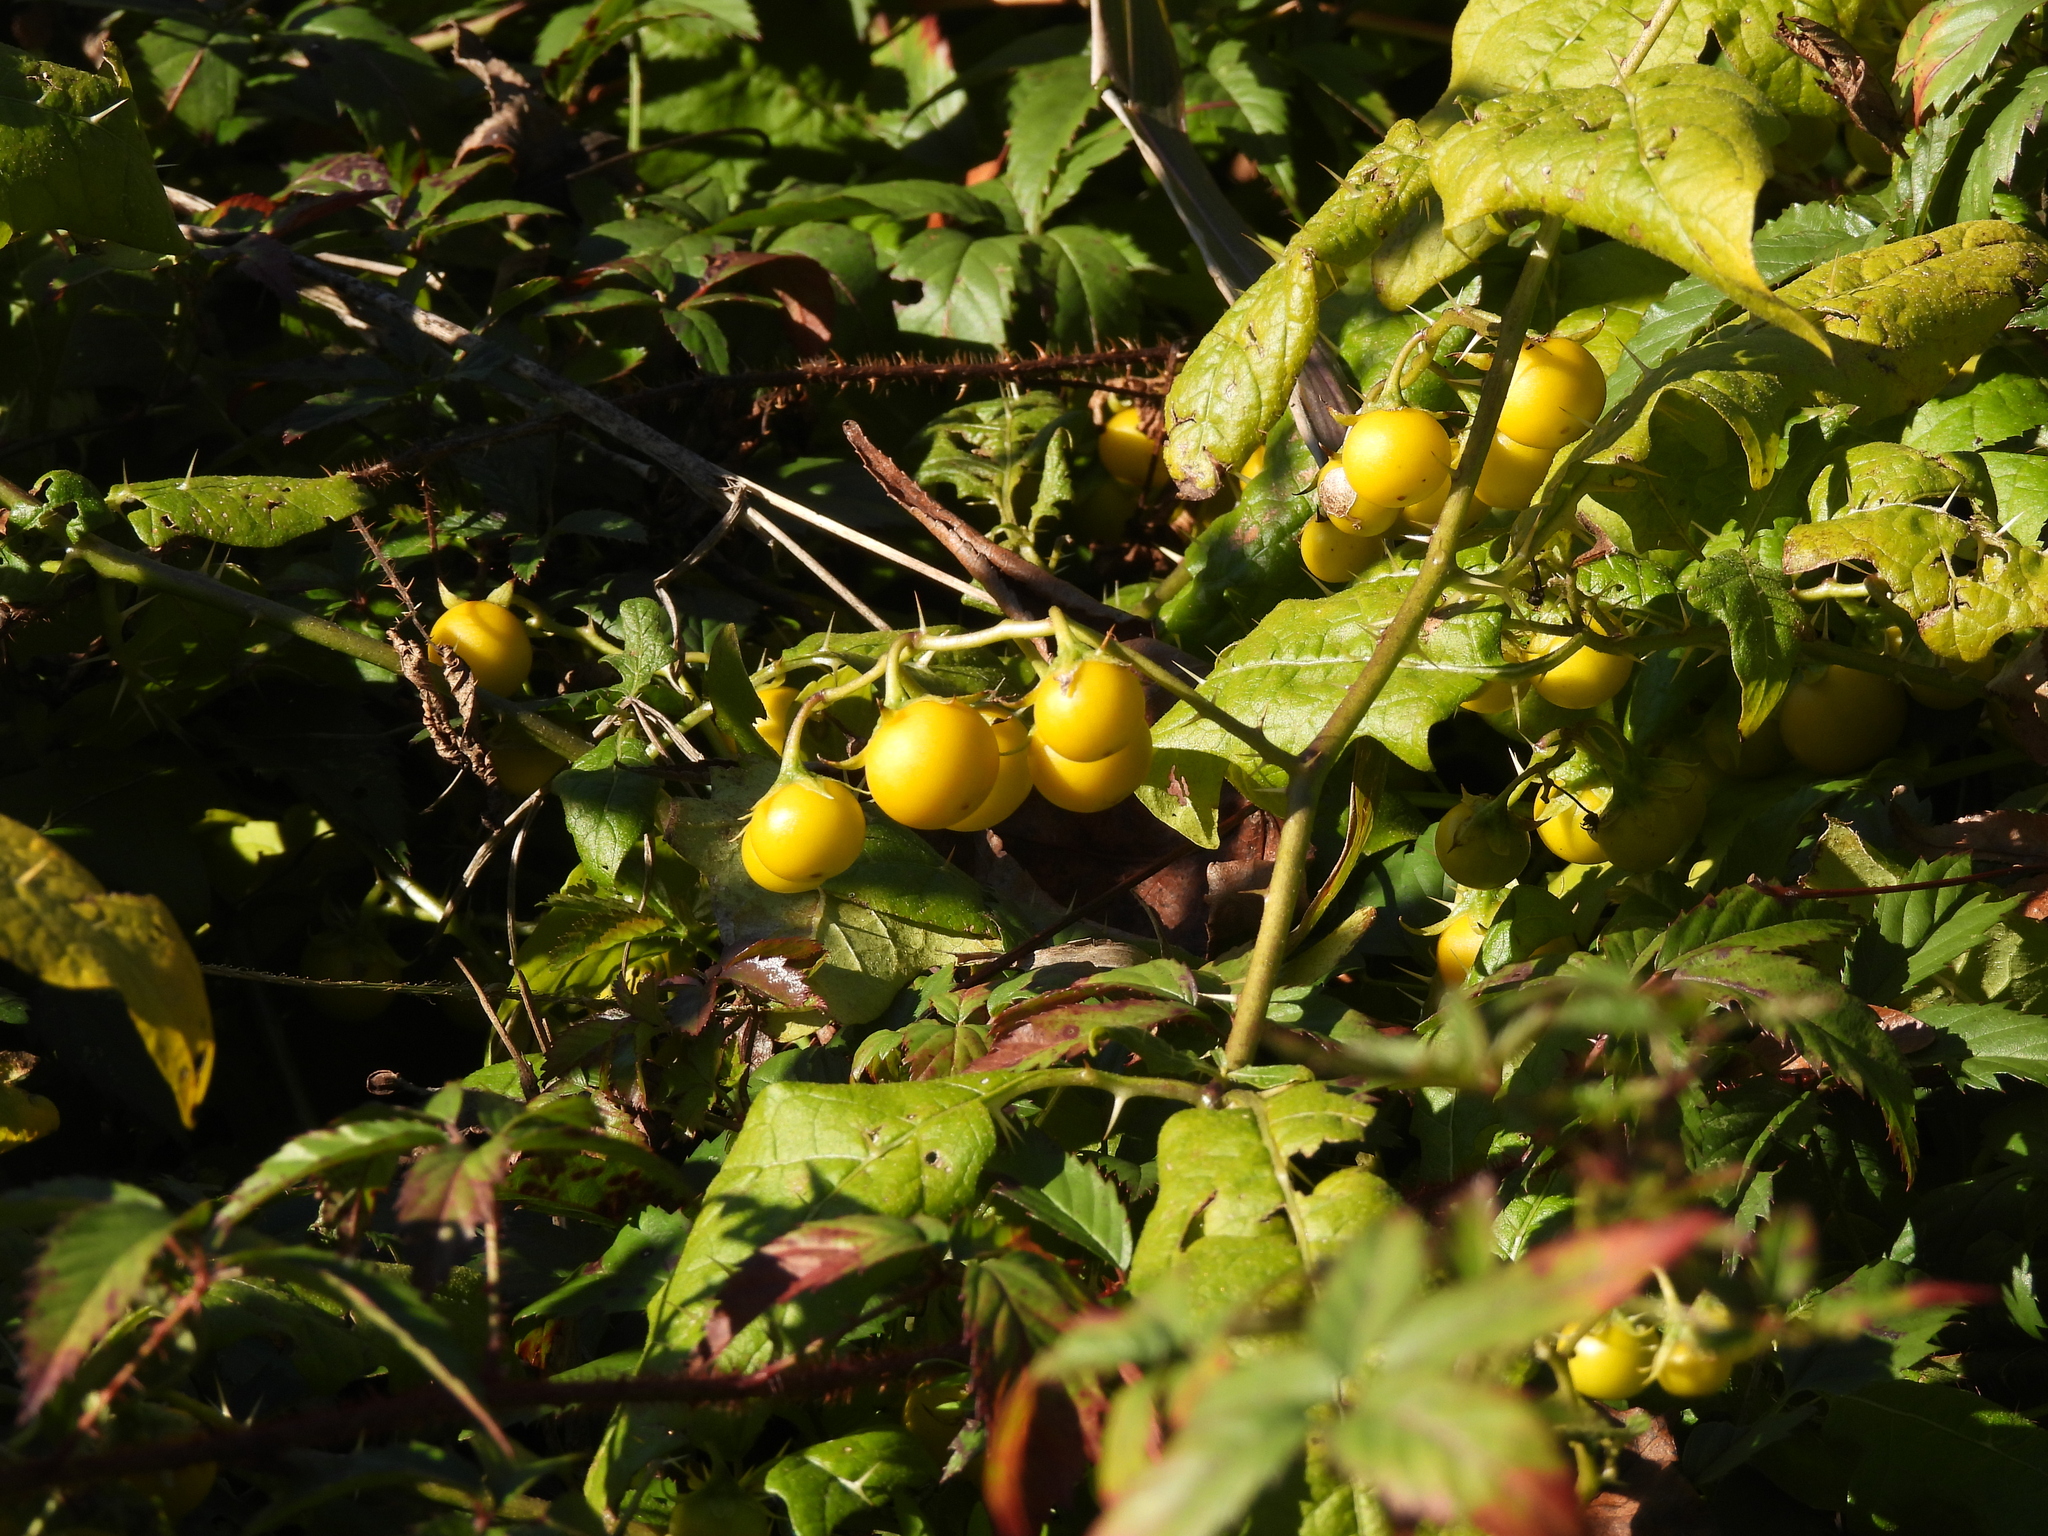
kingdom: Plantae
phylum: Tracheophyta
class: Magnoliopsida
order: Solanales
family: Solanaceae
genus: Solanum
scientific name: Solanum carolinense
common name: Horse-nettle
